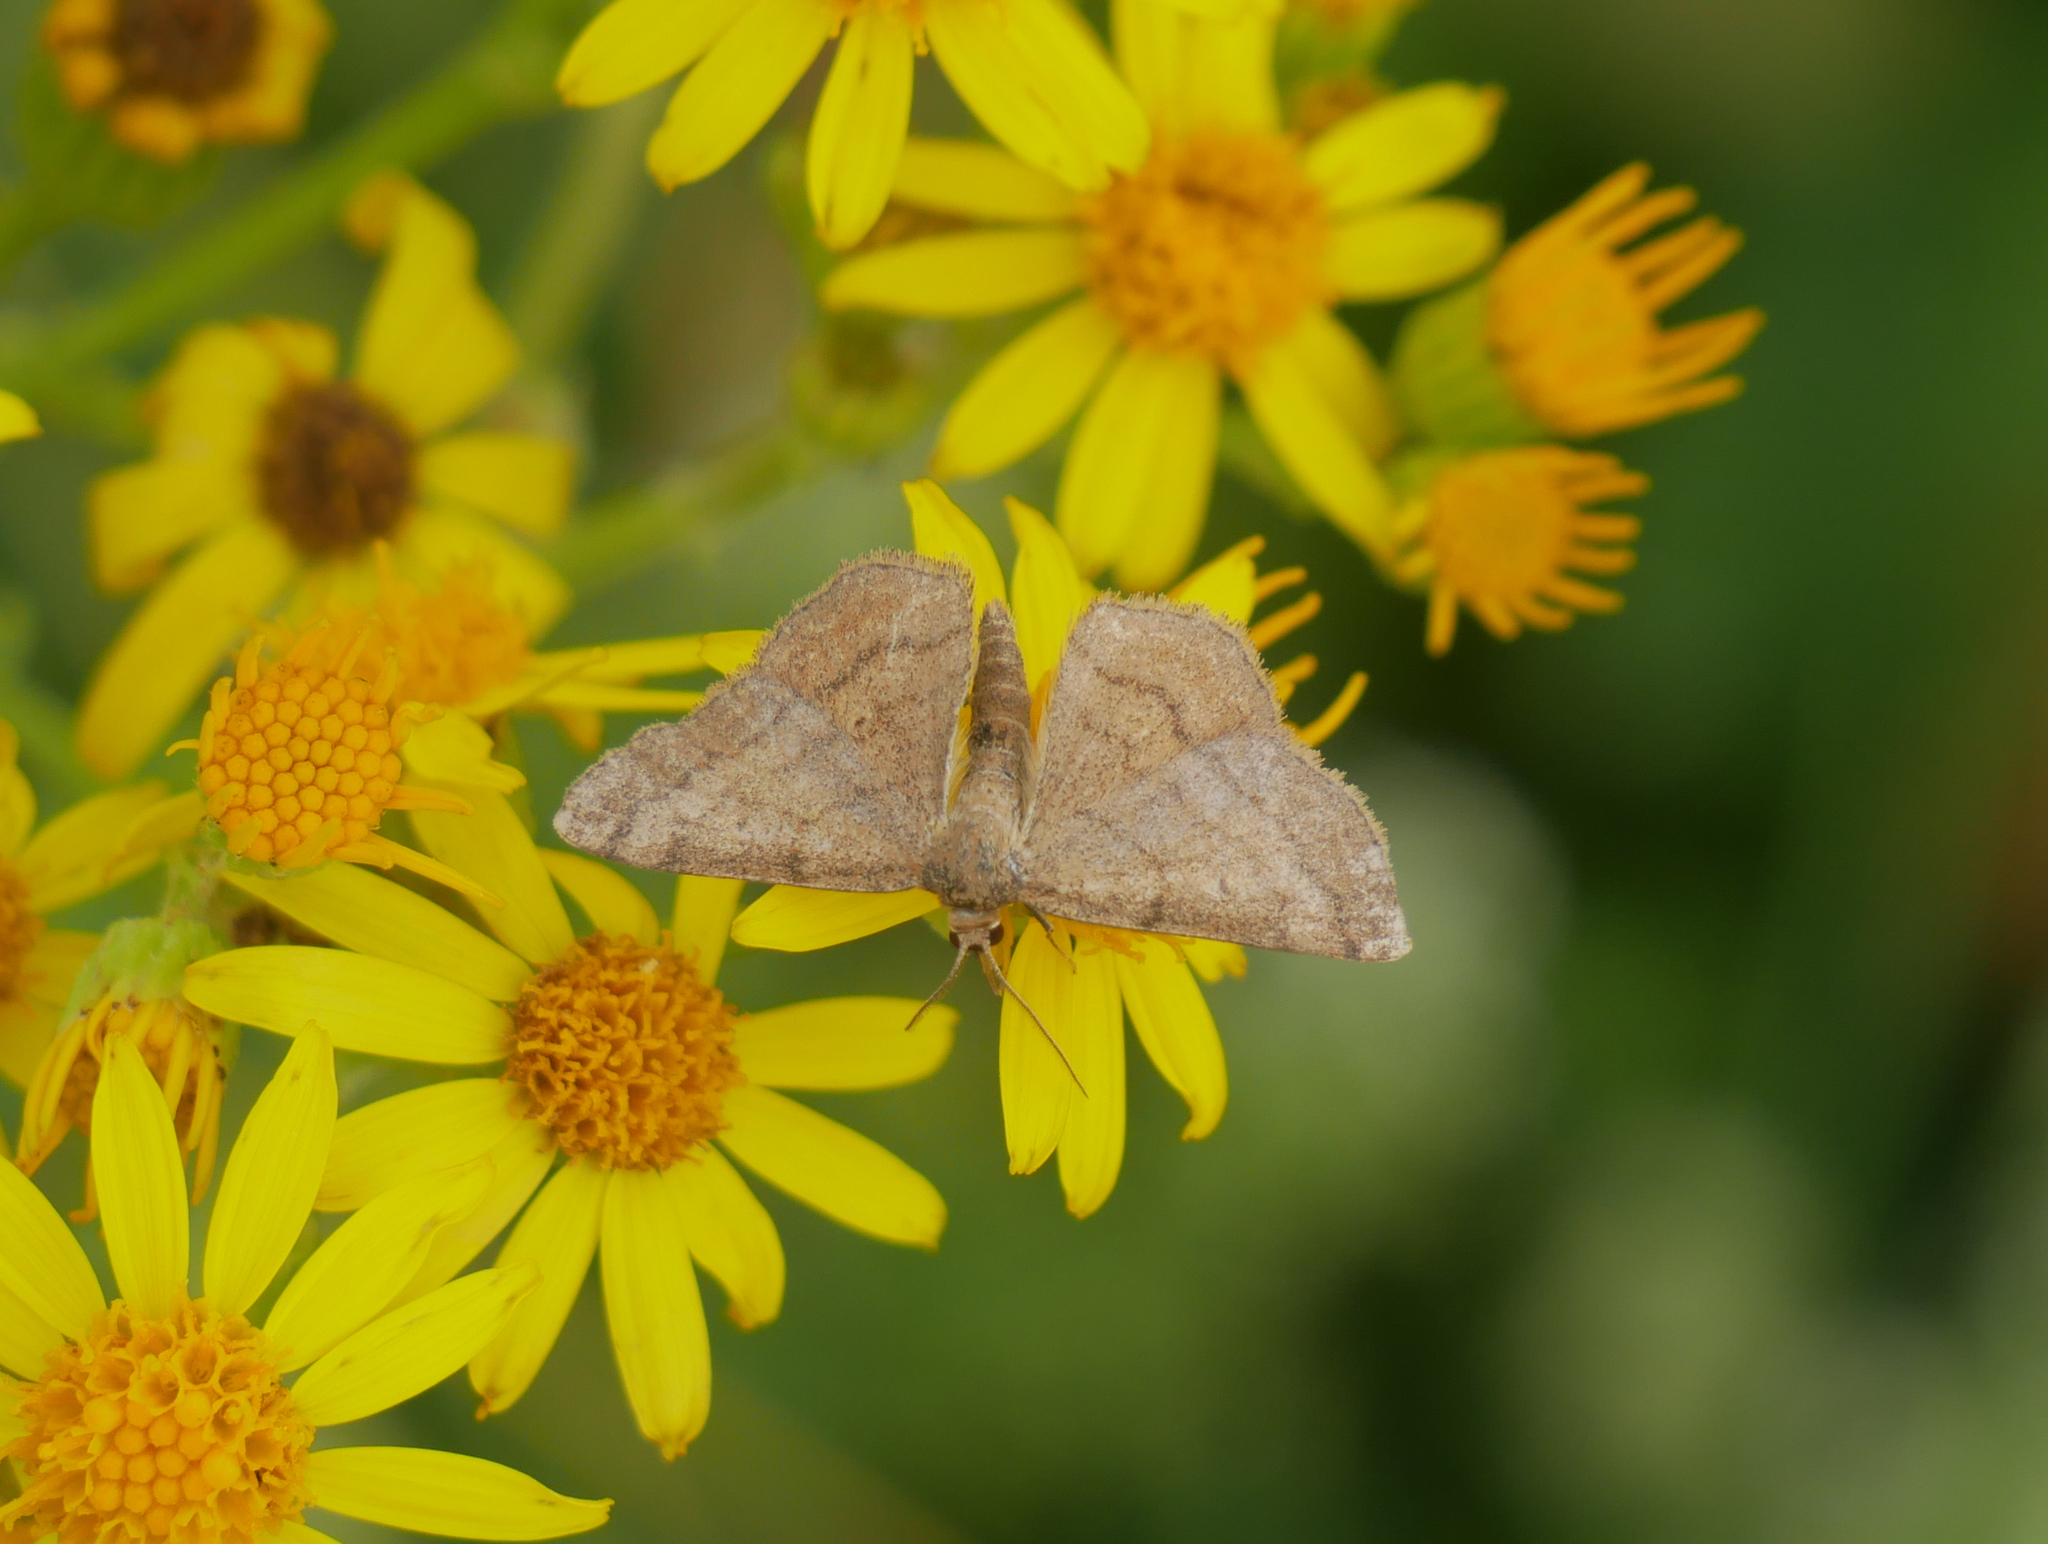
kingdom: Animalia
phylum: Arthropoda
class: Insecta
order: Lepidoptera
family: Geometridae
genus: Scopula
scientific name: Scopula rubiginata
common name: Tawny wave
